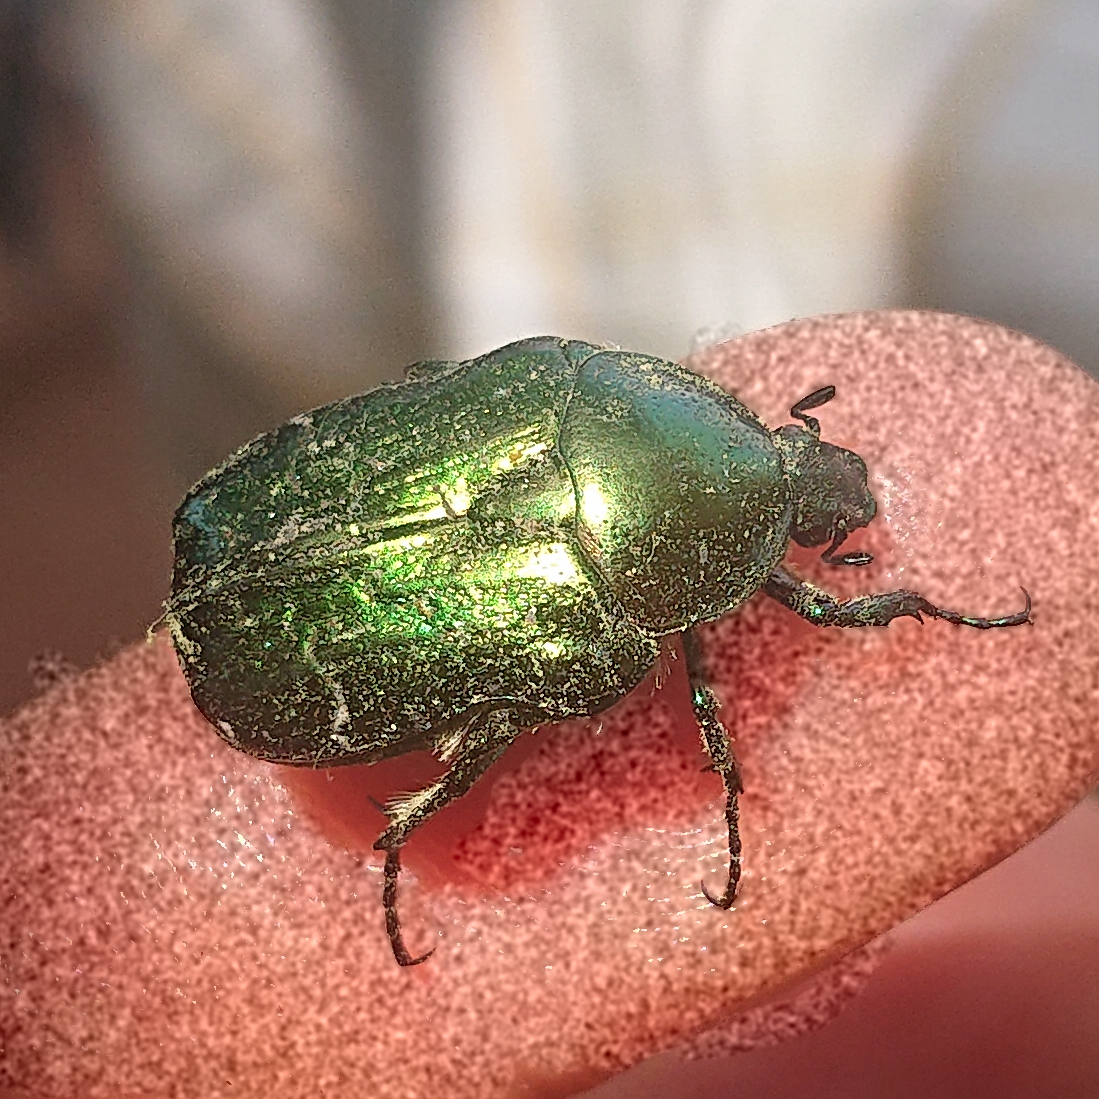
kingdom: Animalia
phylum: Arthropoda
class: Insecta
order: Coleoptera
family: Scarabaeidae
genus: Cetonia
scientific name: Cetonia aurata
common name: Rose chafer
